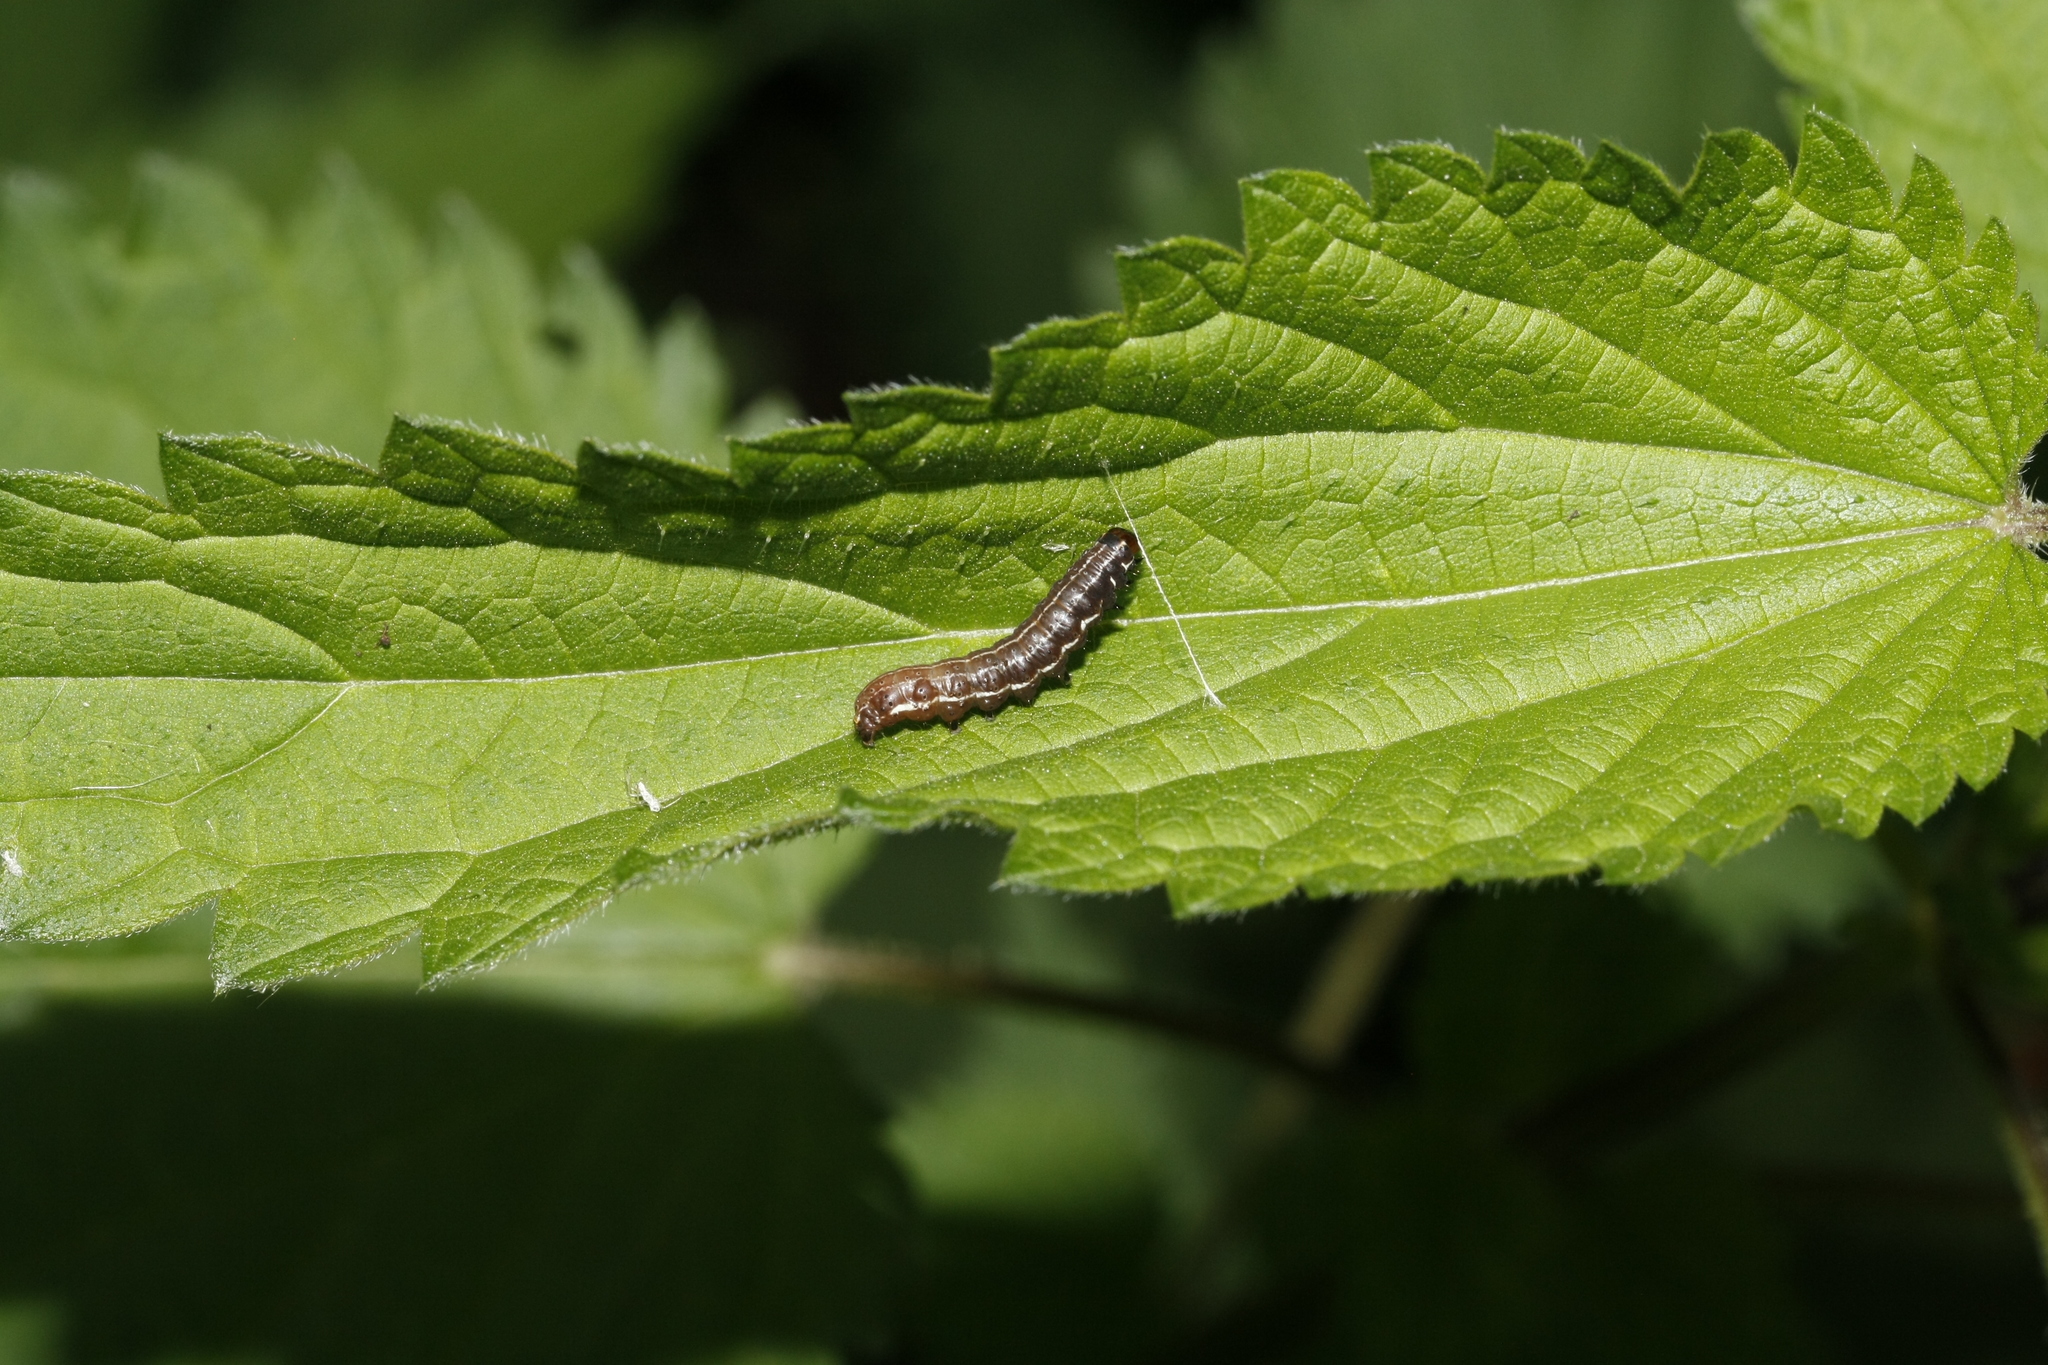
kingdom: Animalia
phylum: Arthropoda
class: Insecta
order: Lepidoptera
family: Noctuidae
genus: Eupsilia
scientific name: Eupsilia transversa
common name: Satellite
